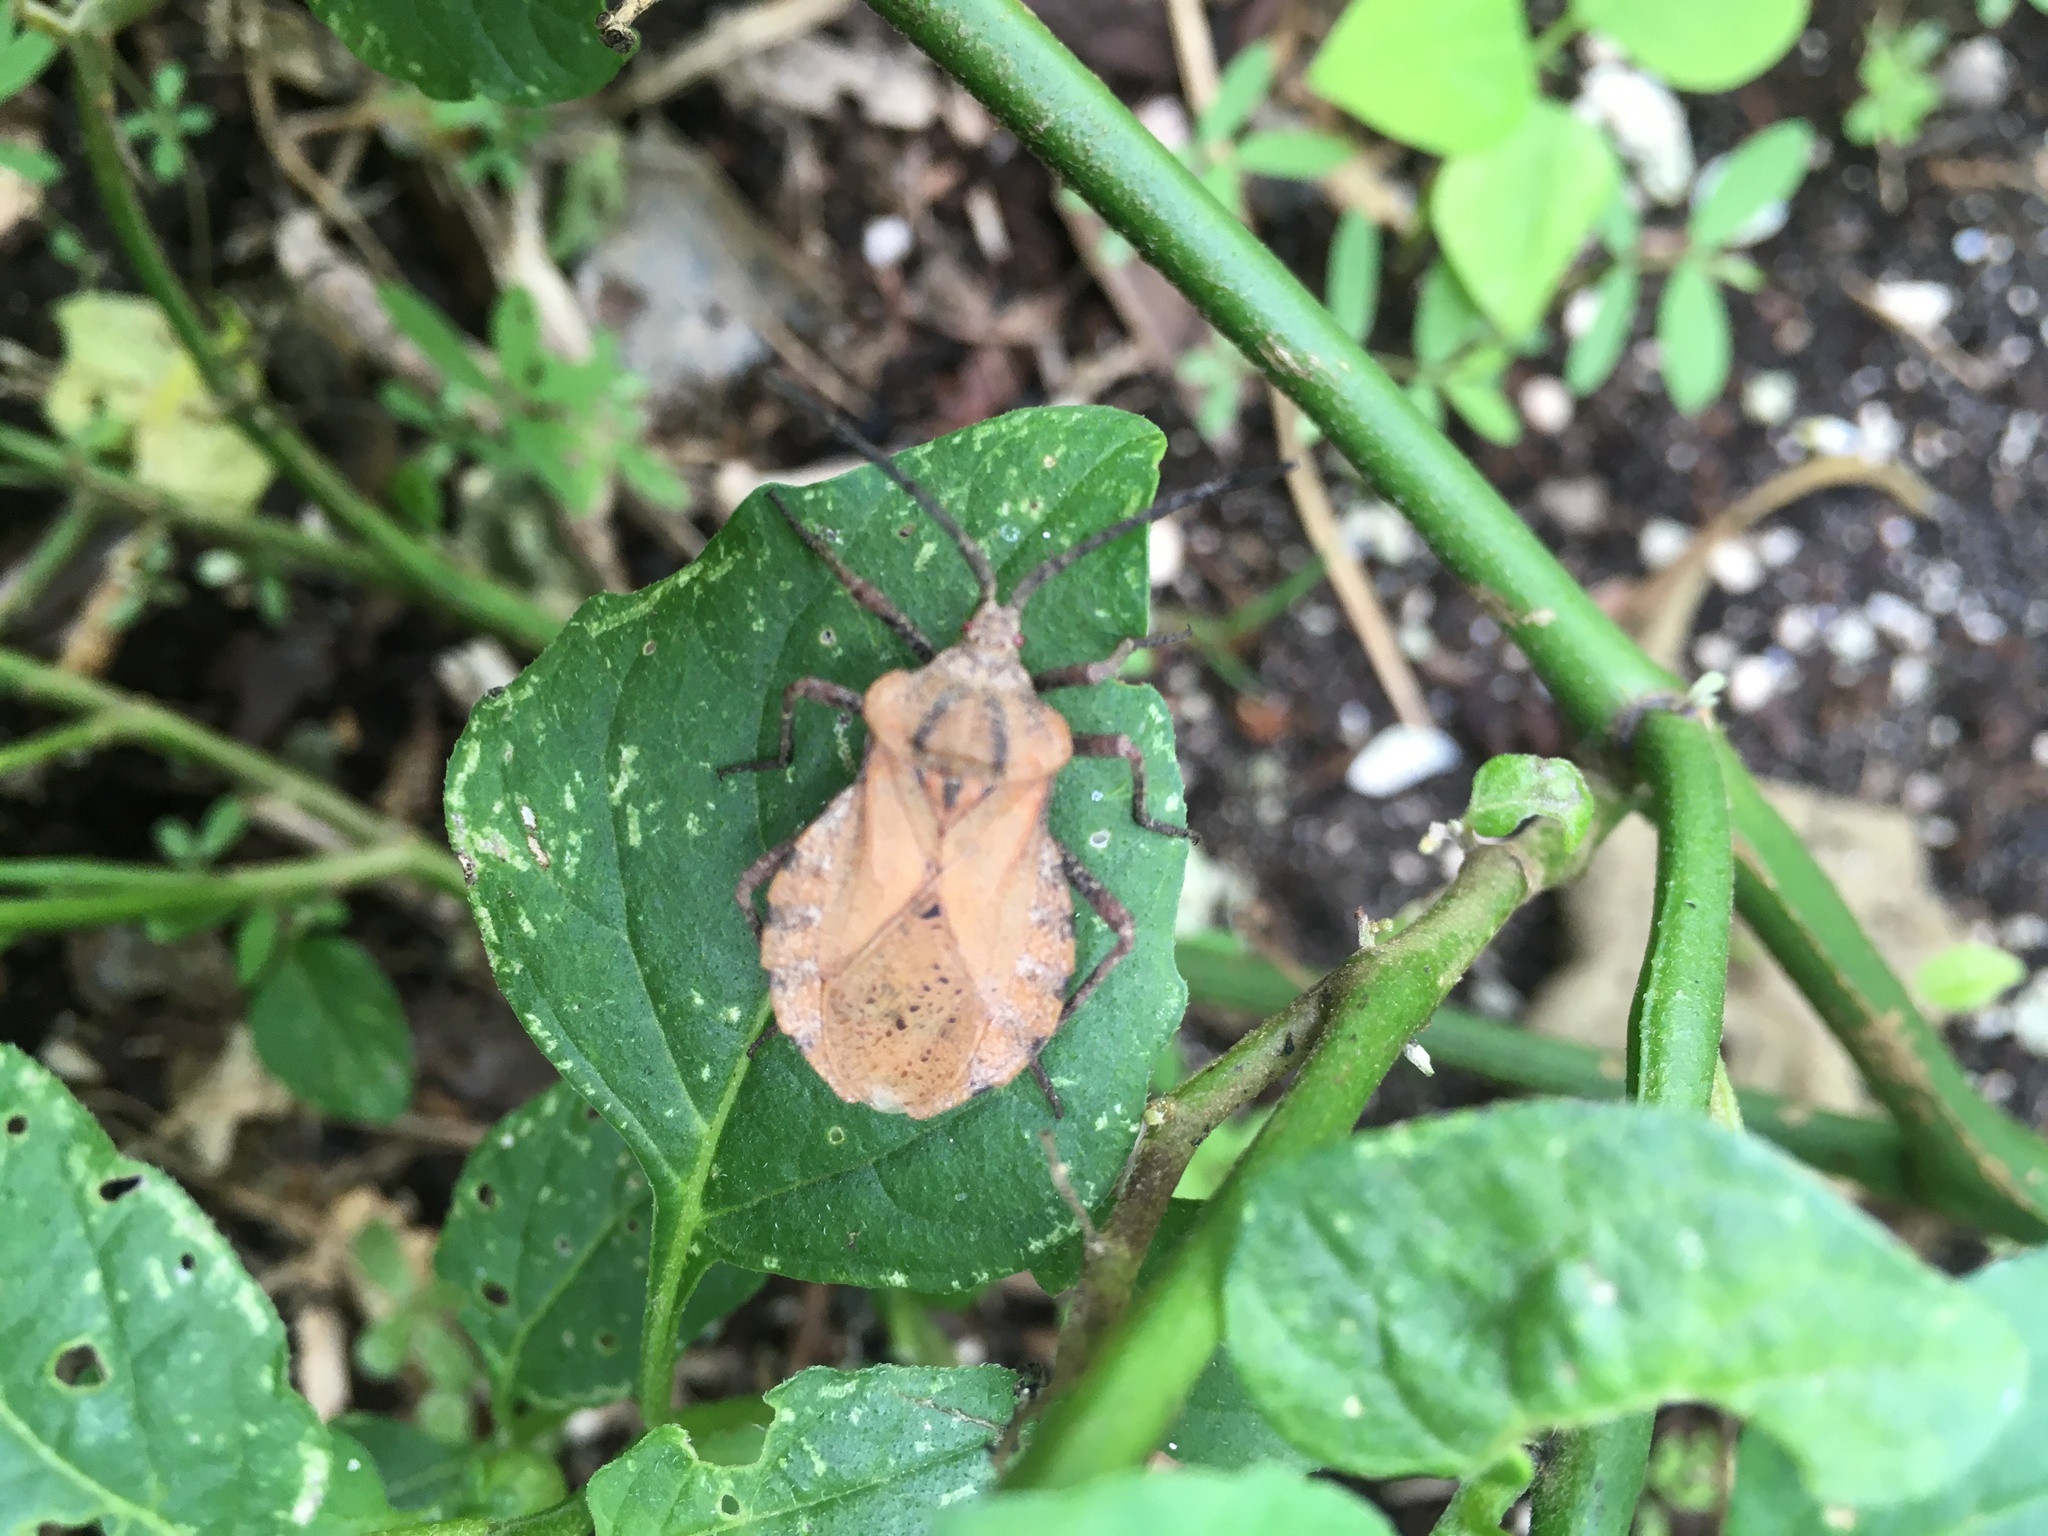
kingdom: Animalia
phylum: Arthropoda
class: Insecta
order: Hemiptera
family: Coreidae
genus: Spartocera
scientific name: Spartocera fusca
